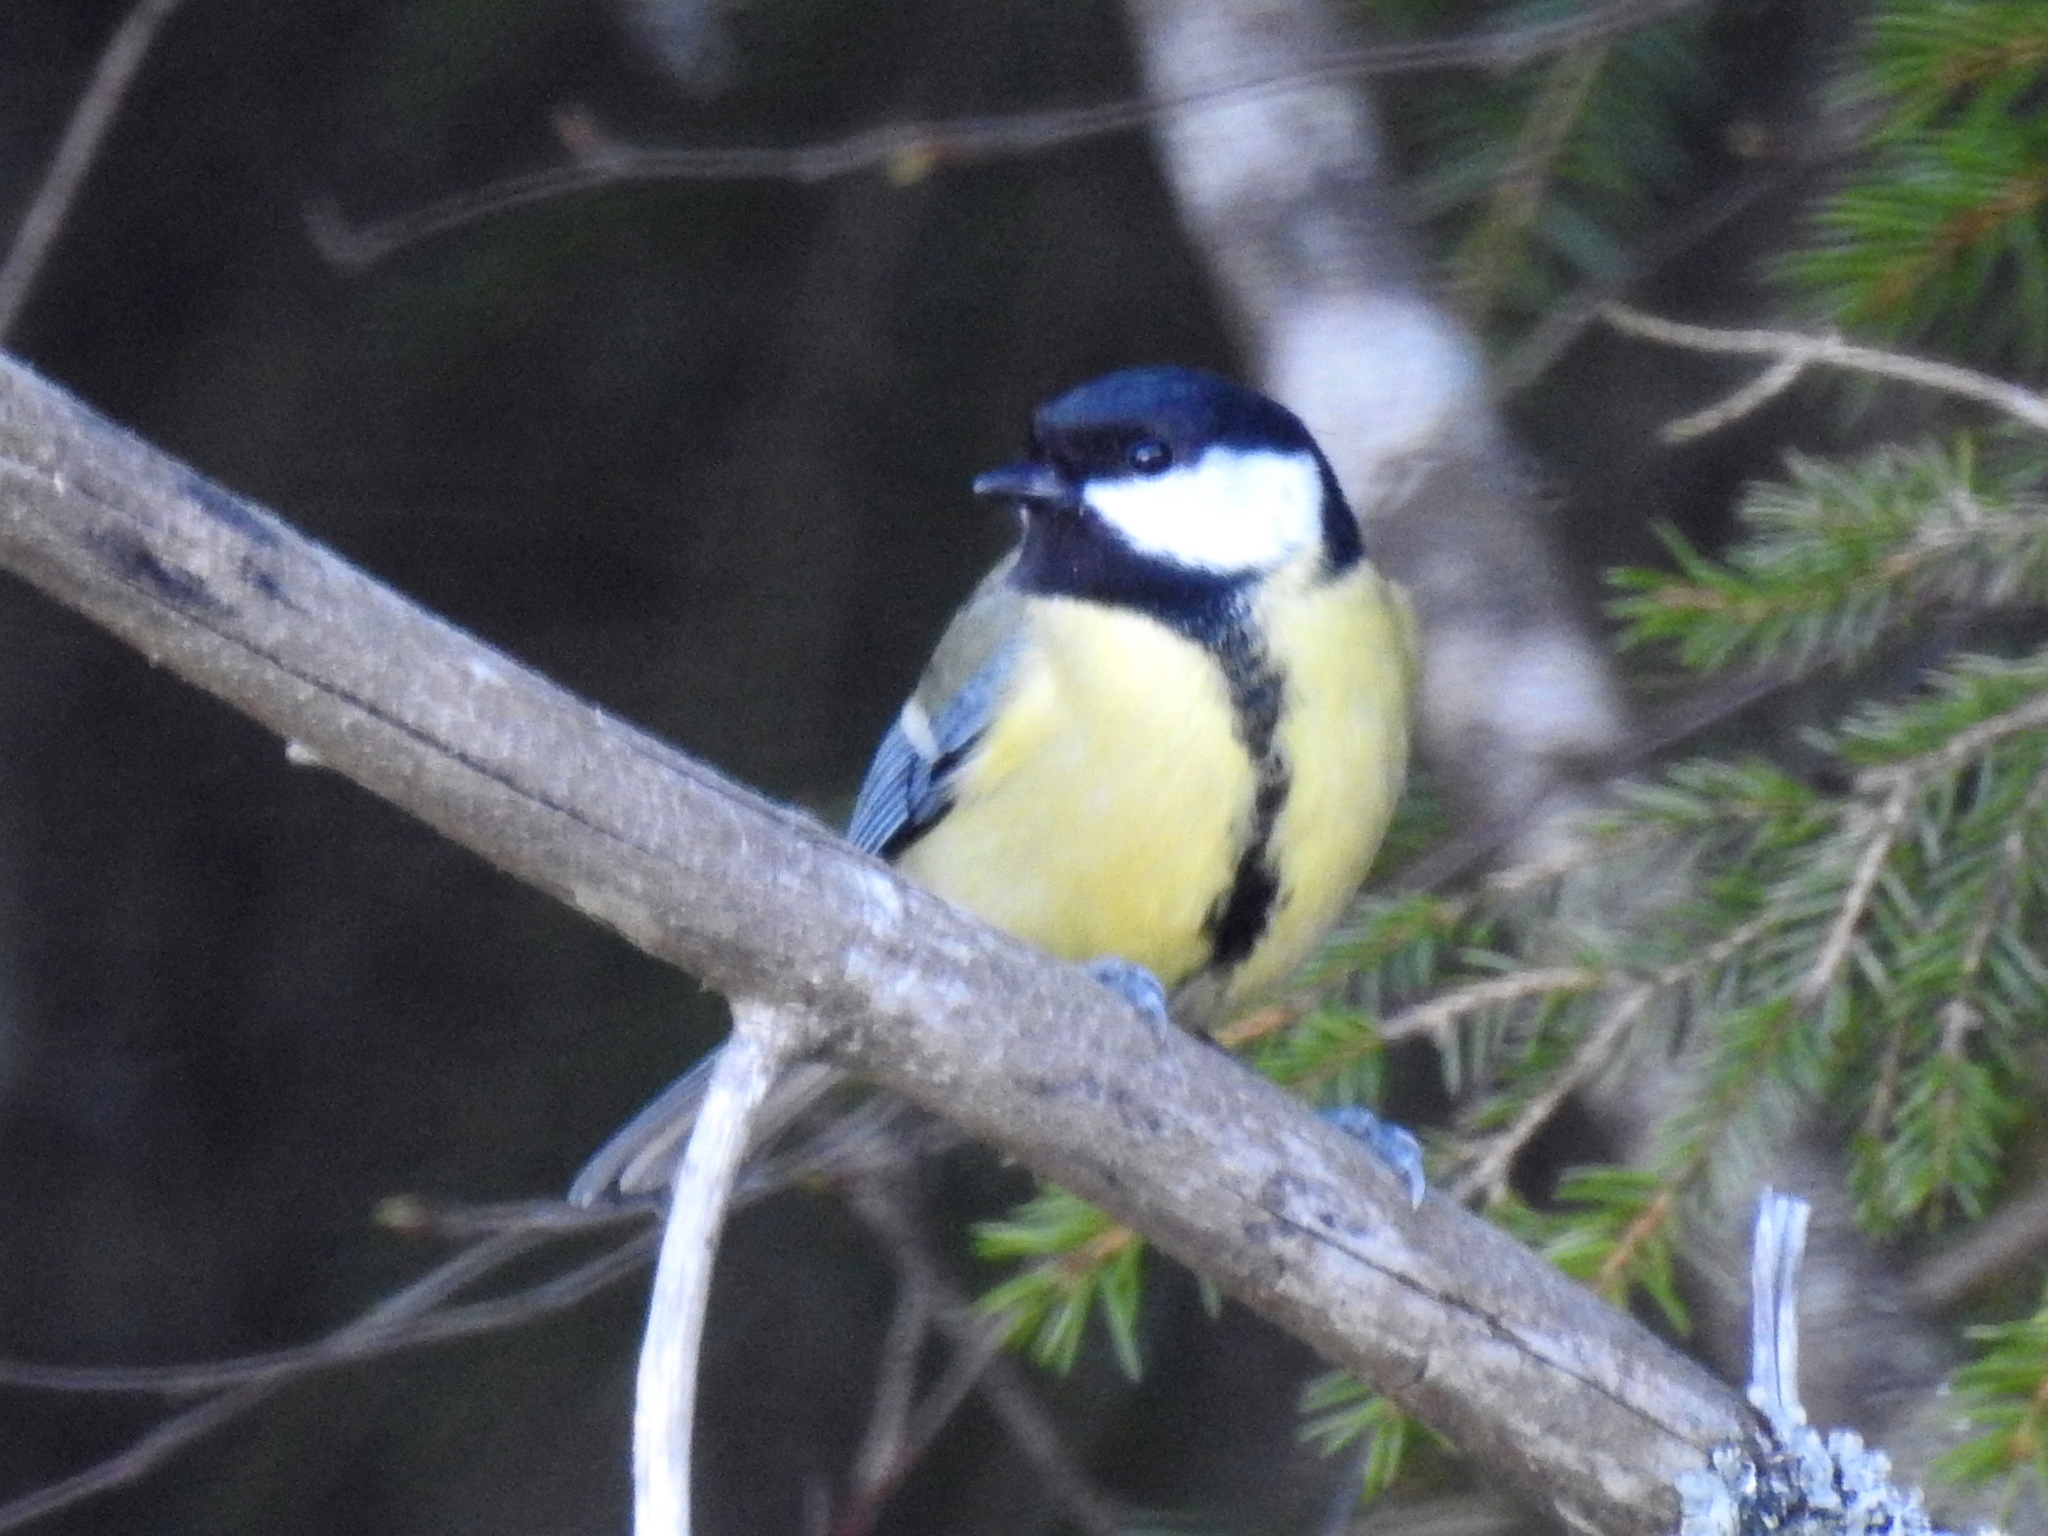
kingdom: Animalia
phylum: Chordata
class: Aves
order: Passeriformes
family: Paridae
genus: Parus
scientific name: Parus major
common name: Great tit
